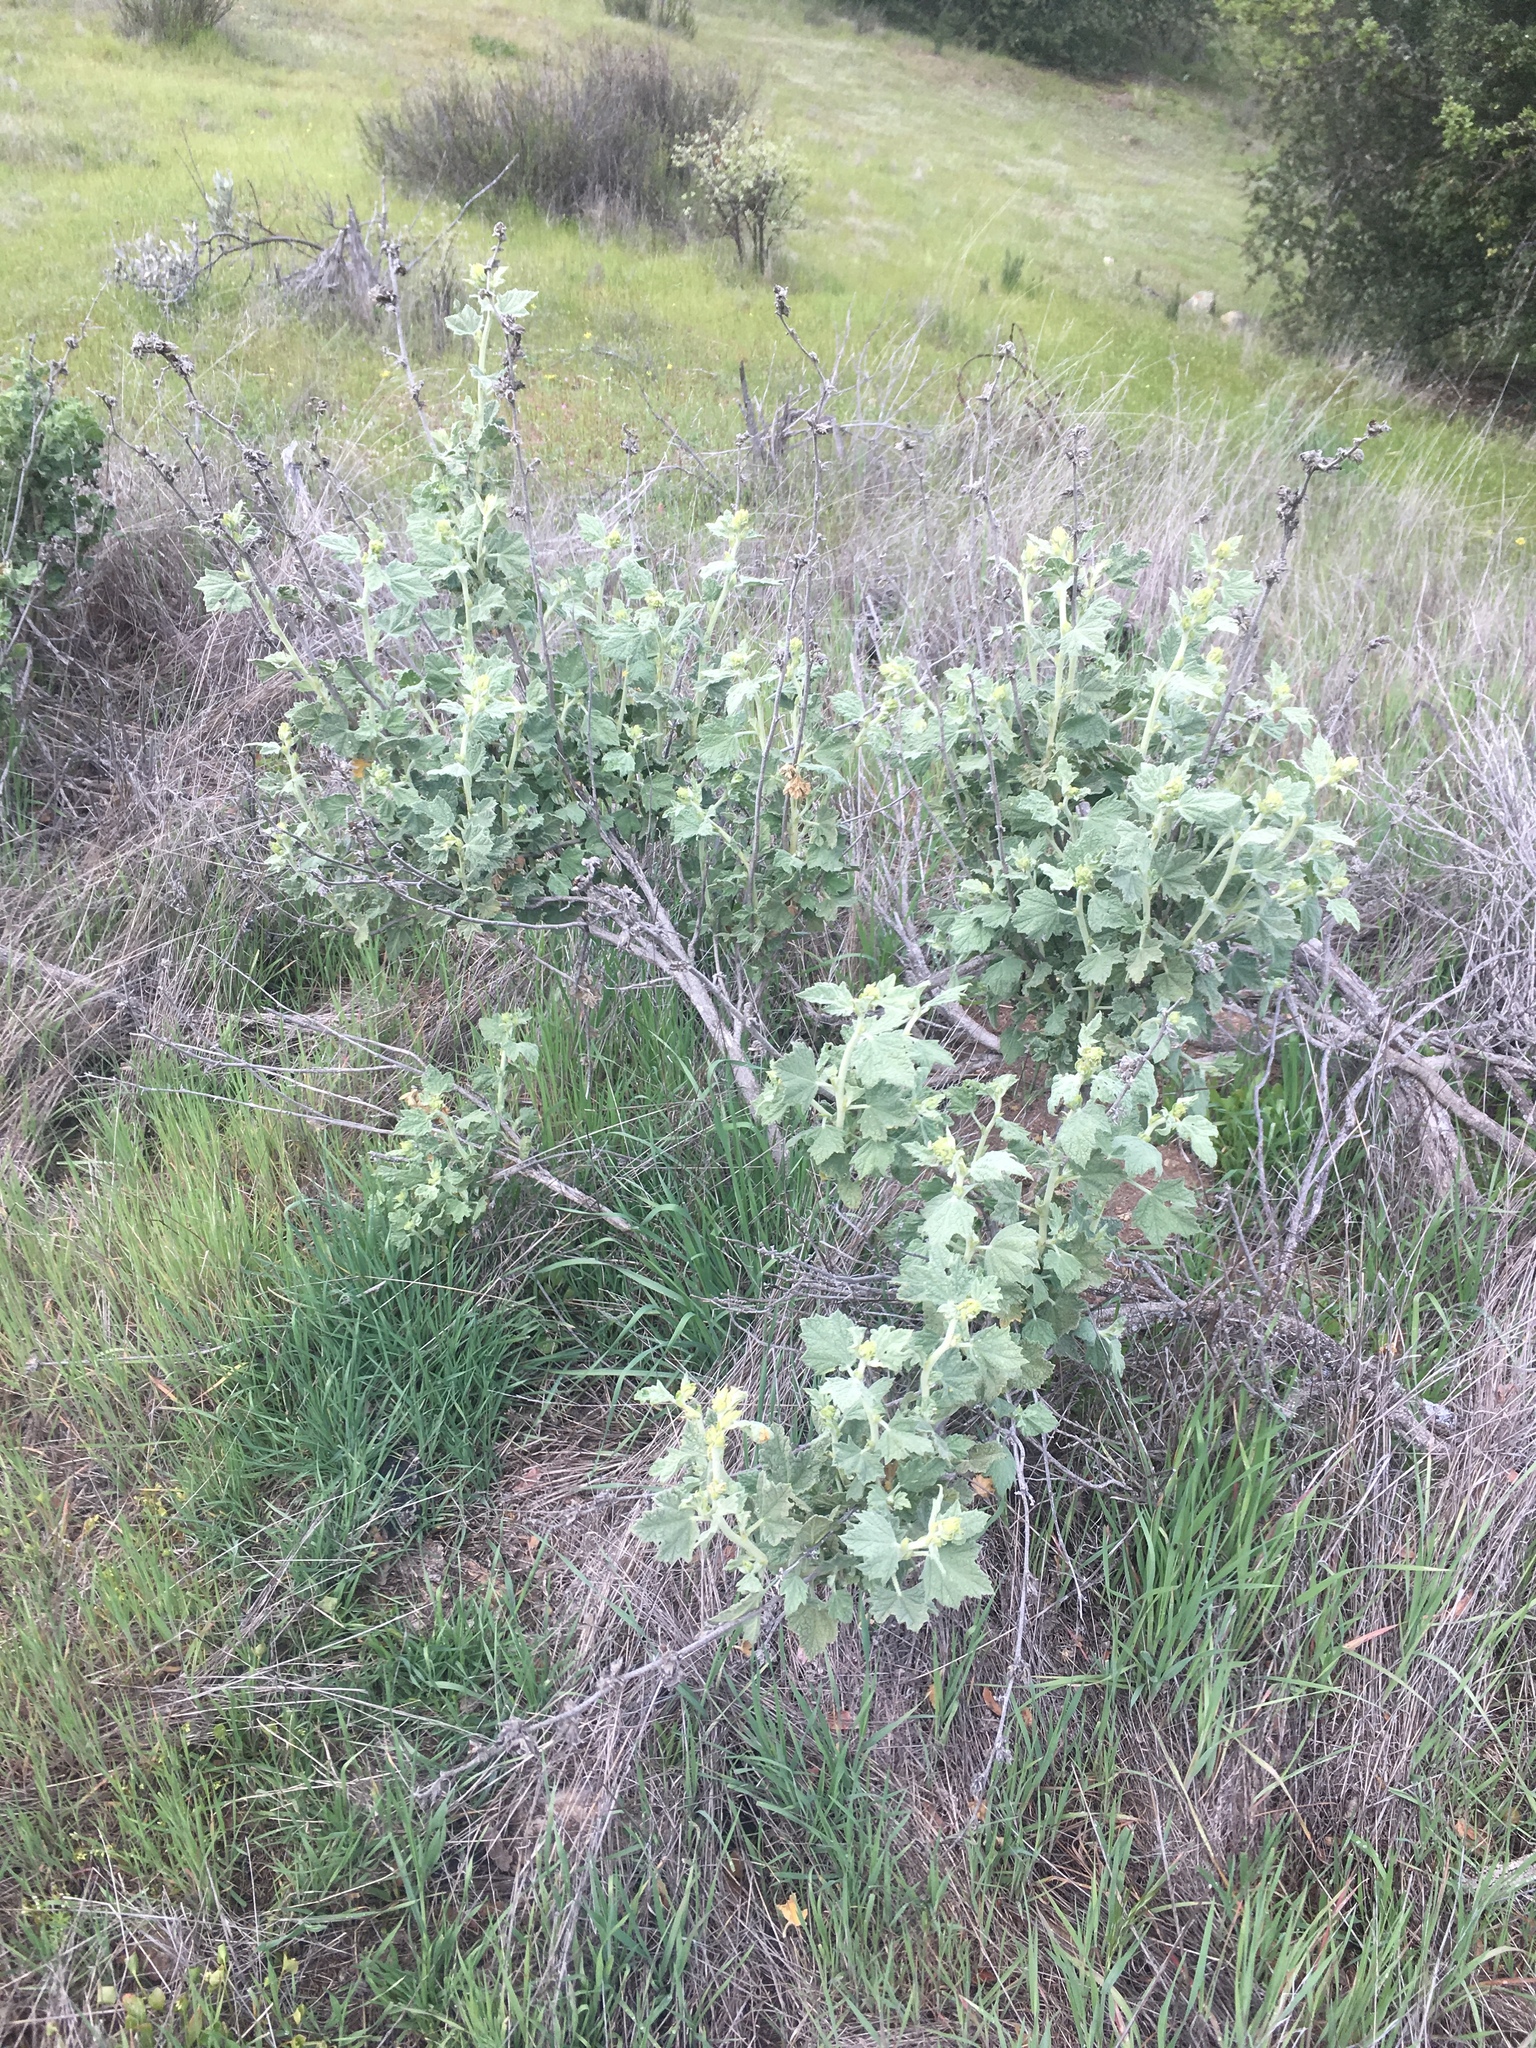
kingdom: Plantae
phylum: Tracheophyta
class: Magnoliopsida
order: Malvales
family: Malvaceae
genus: Malacothamnus
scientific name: Malacothamnus aboriginum
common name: Indian valley bush-mallow
